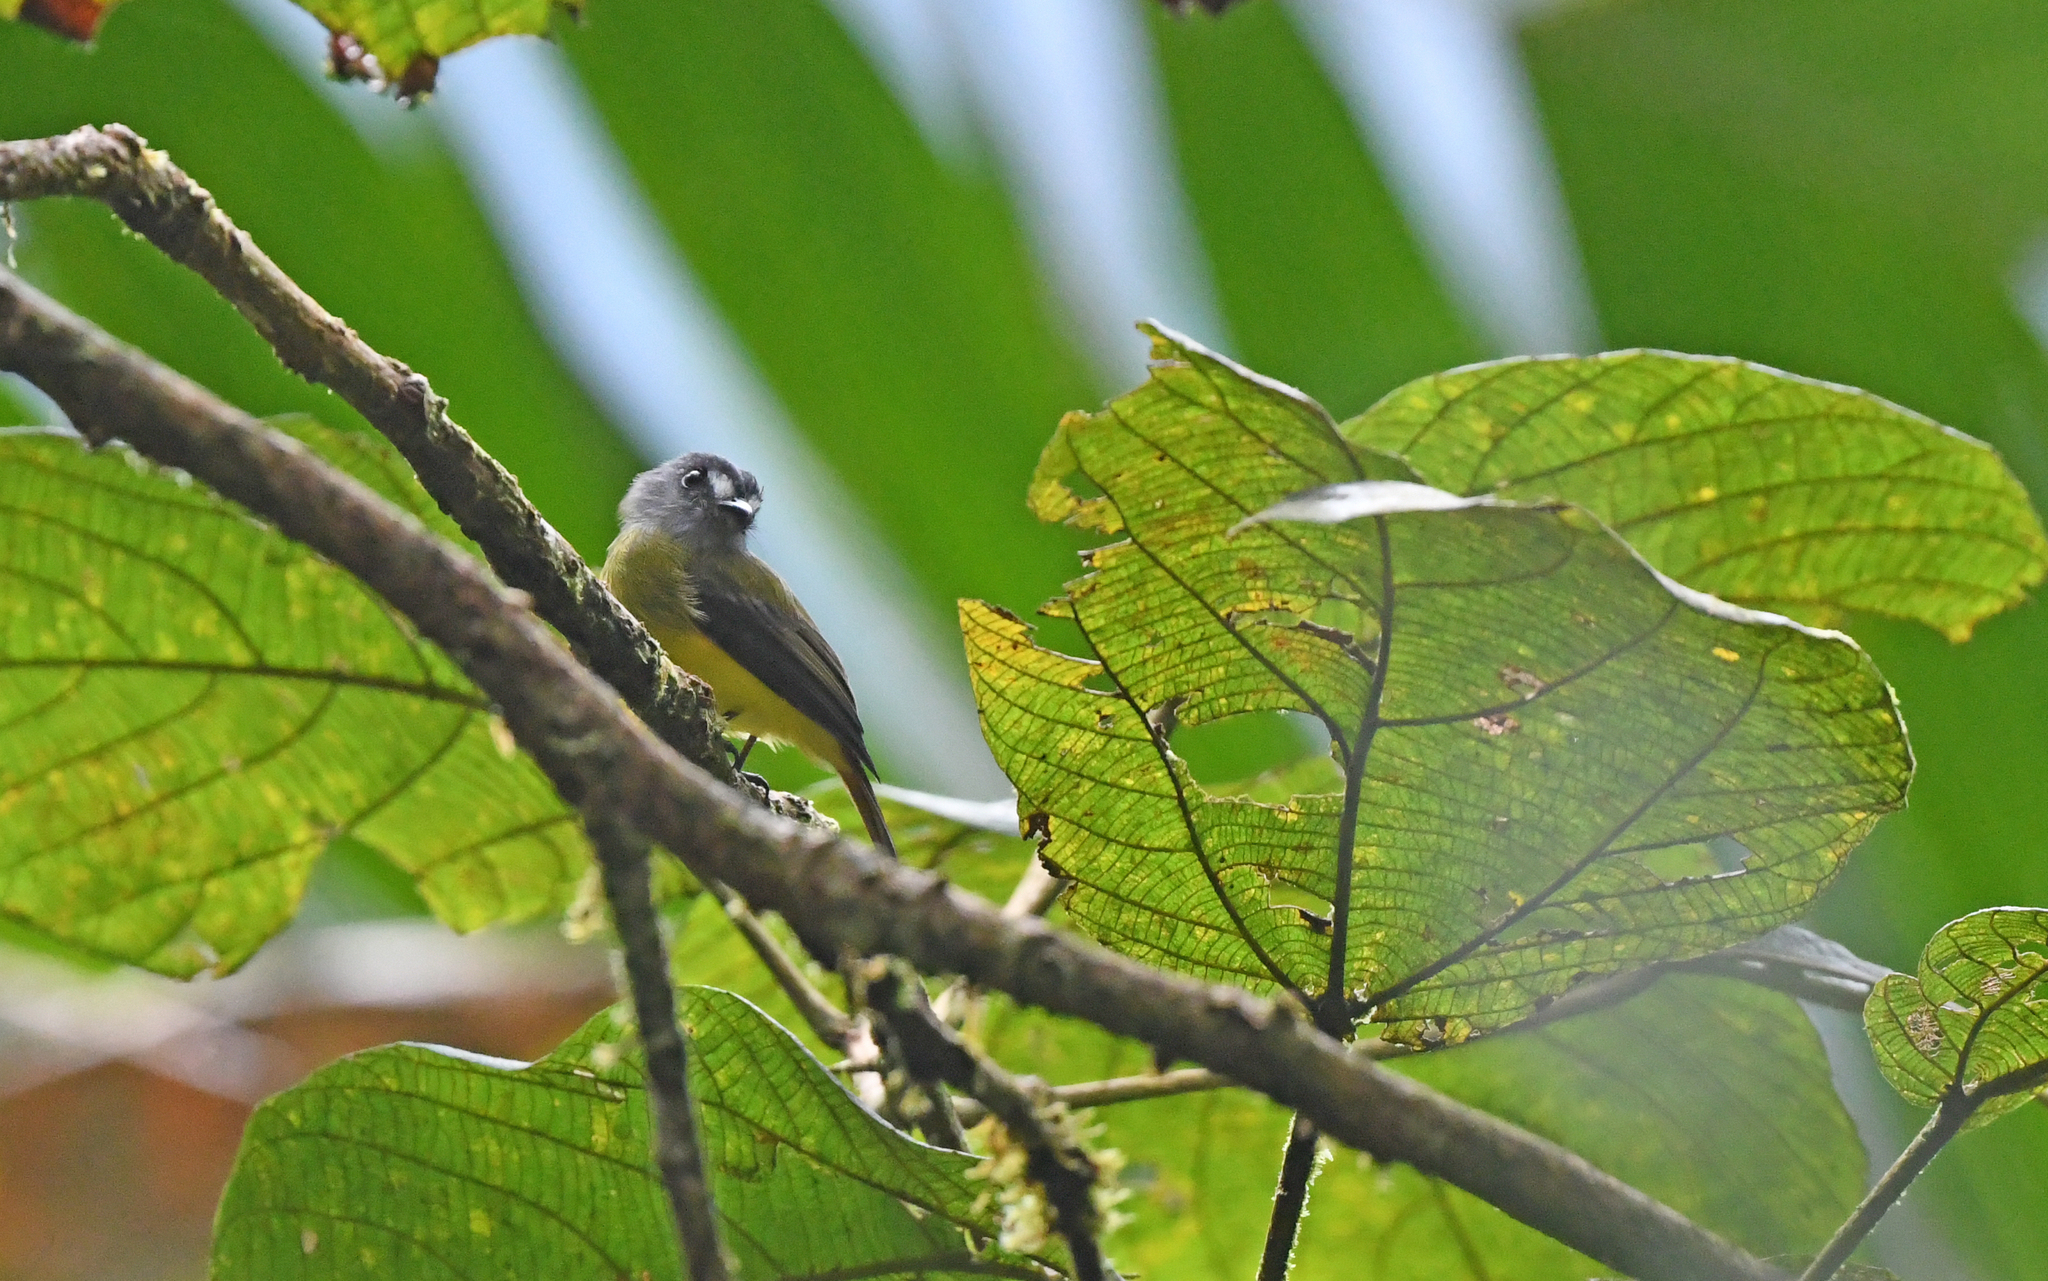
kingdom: Animalia
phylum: Chordata
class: Aves
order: Passeriformes
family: Tyrannidae
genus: Myiotriccus
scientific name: Myiotriccus ornatus
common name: Ornate flycatcher
